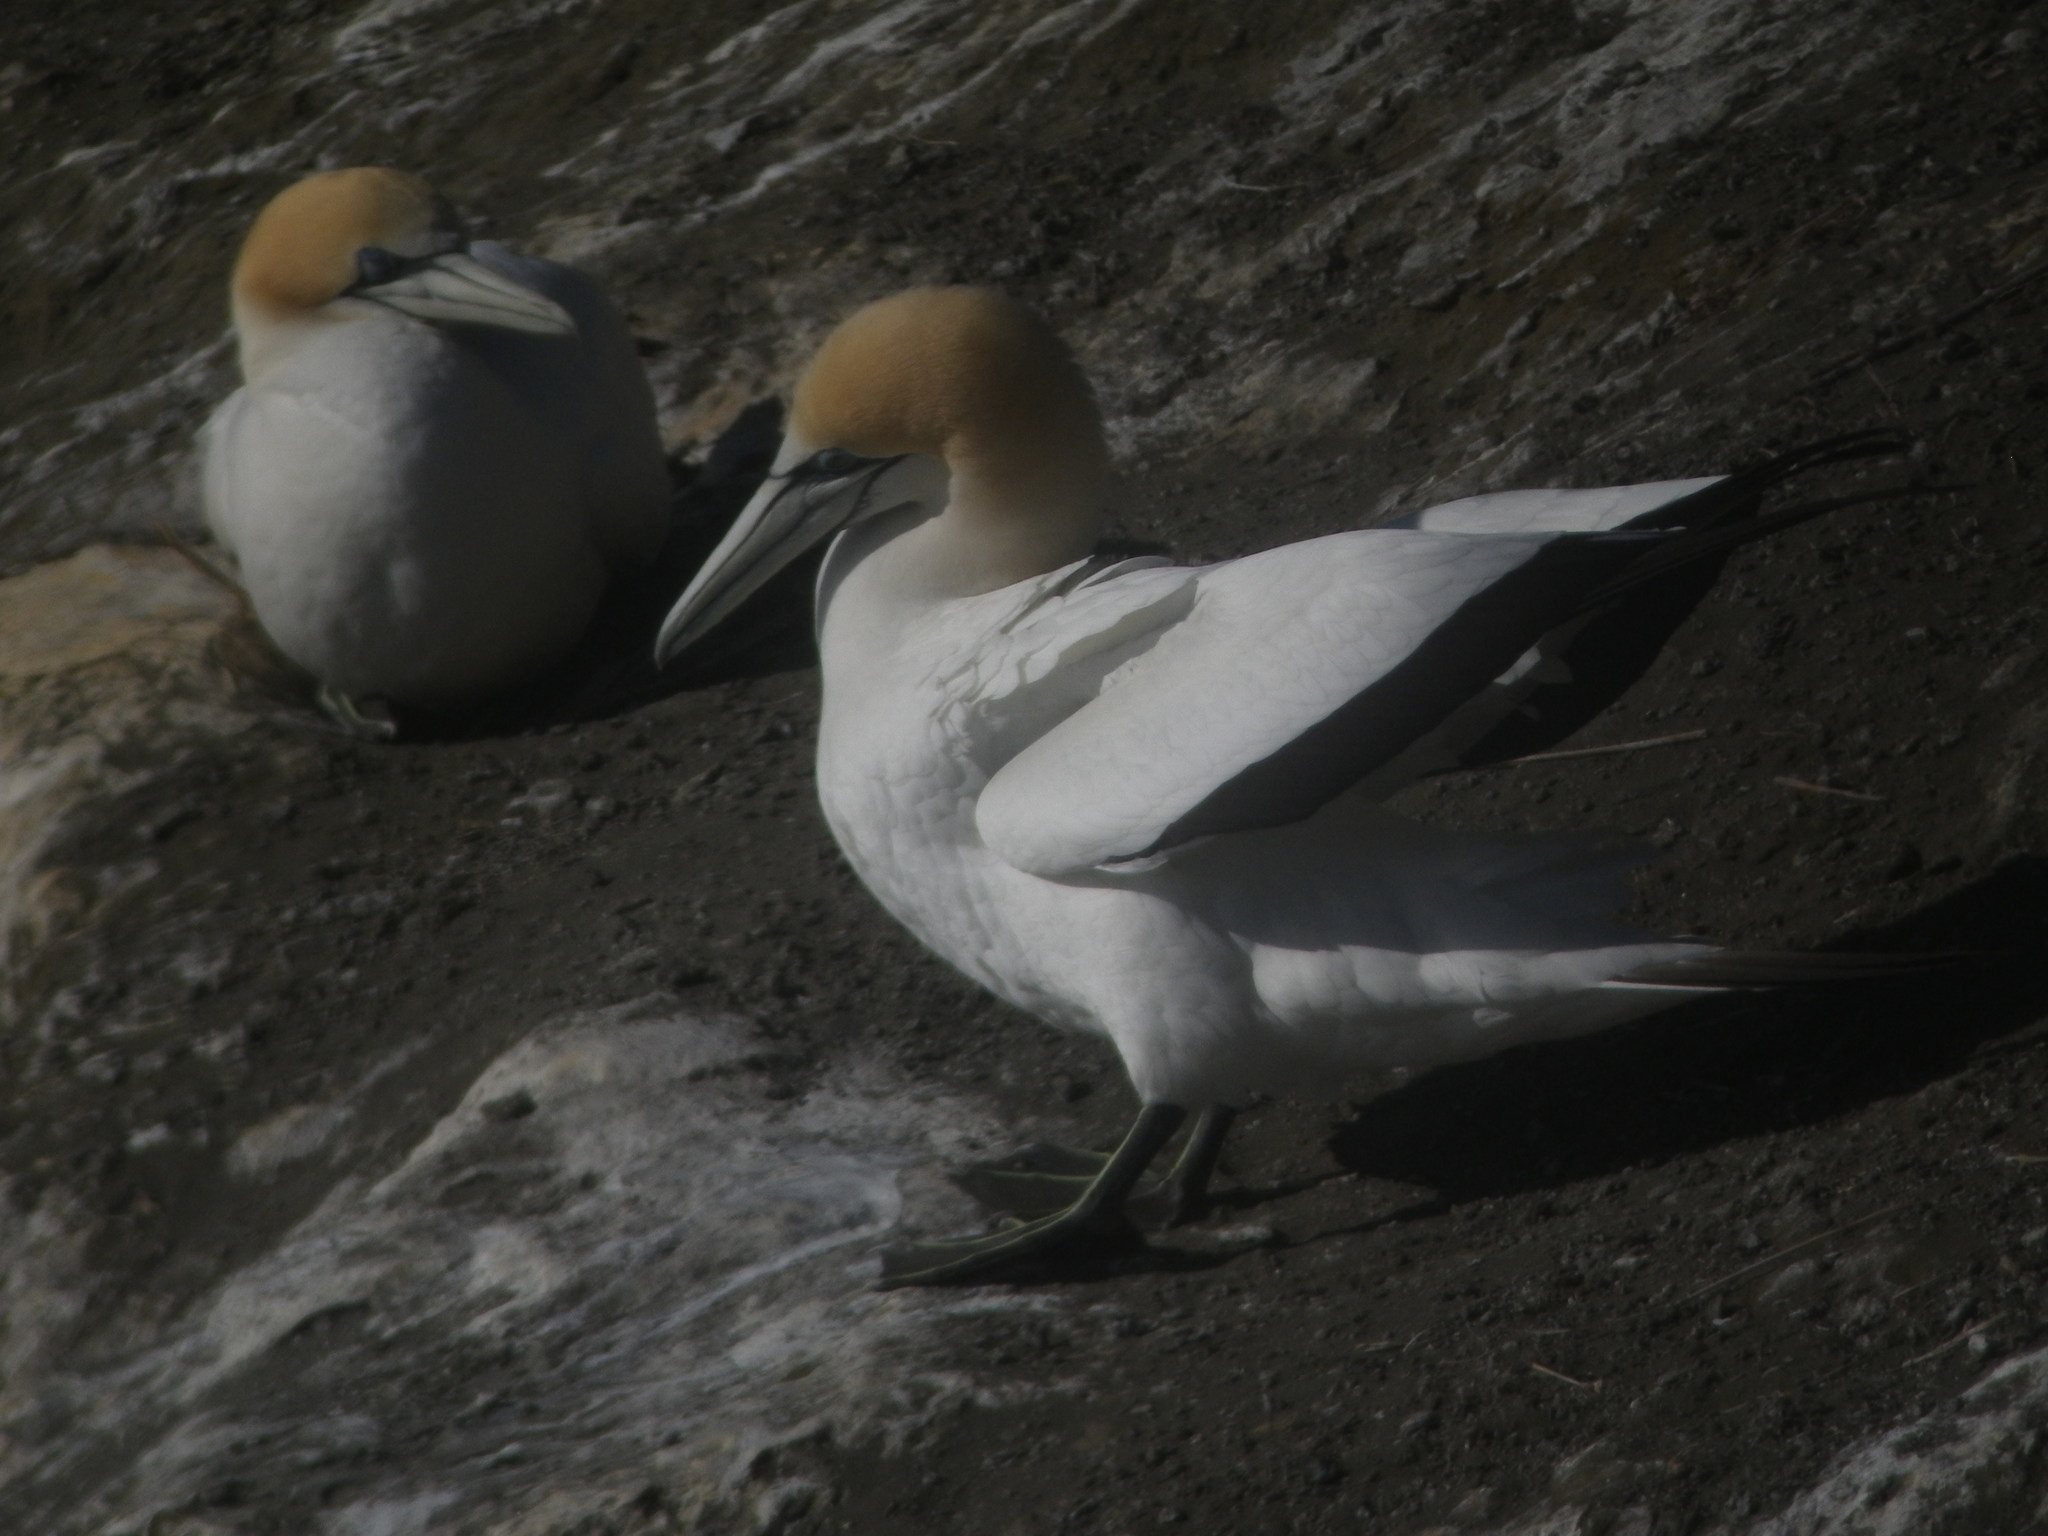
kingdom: Animalia
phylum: Chordata
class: Aves
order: Suliformes
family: Sulidae
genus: Morus
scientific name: Morus serrator
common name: Australasian gannet
